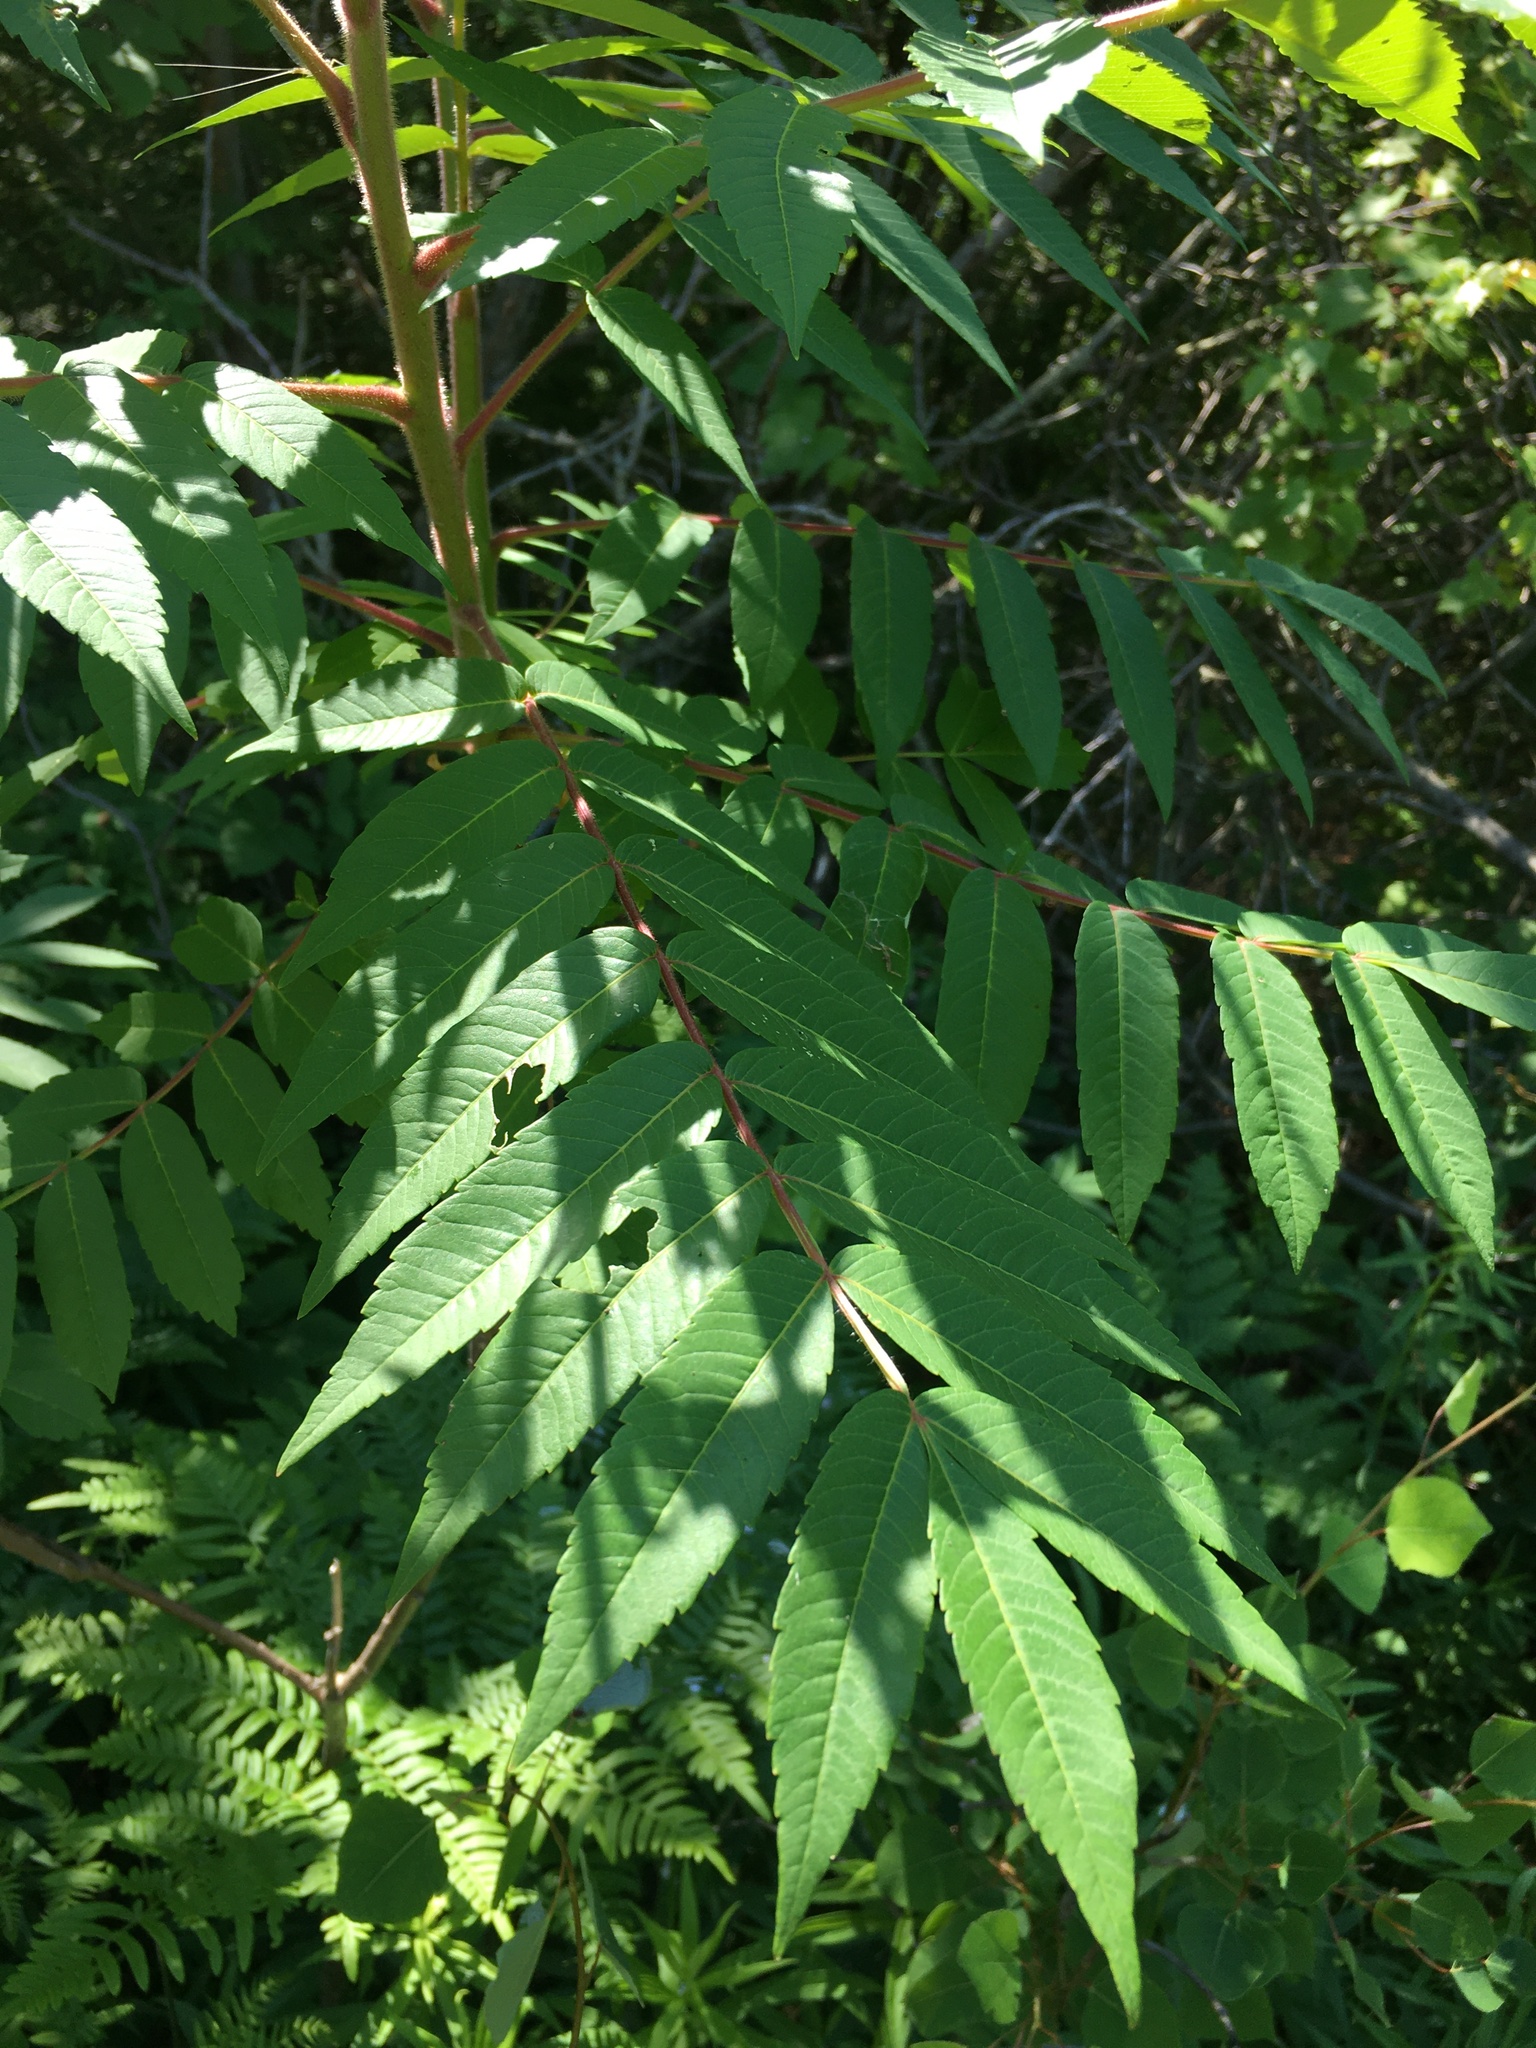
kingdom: Plantae
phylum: Tracheophyta
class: Magnoliopsida
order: Sapindales
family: Anacardiaceae
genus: Rhus
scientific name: Rhus typhina
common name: Staghorn sumac
